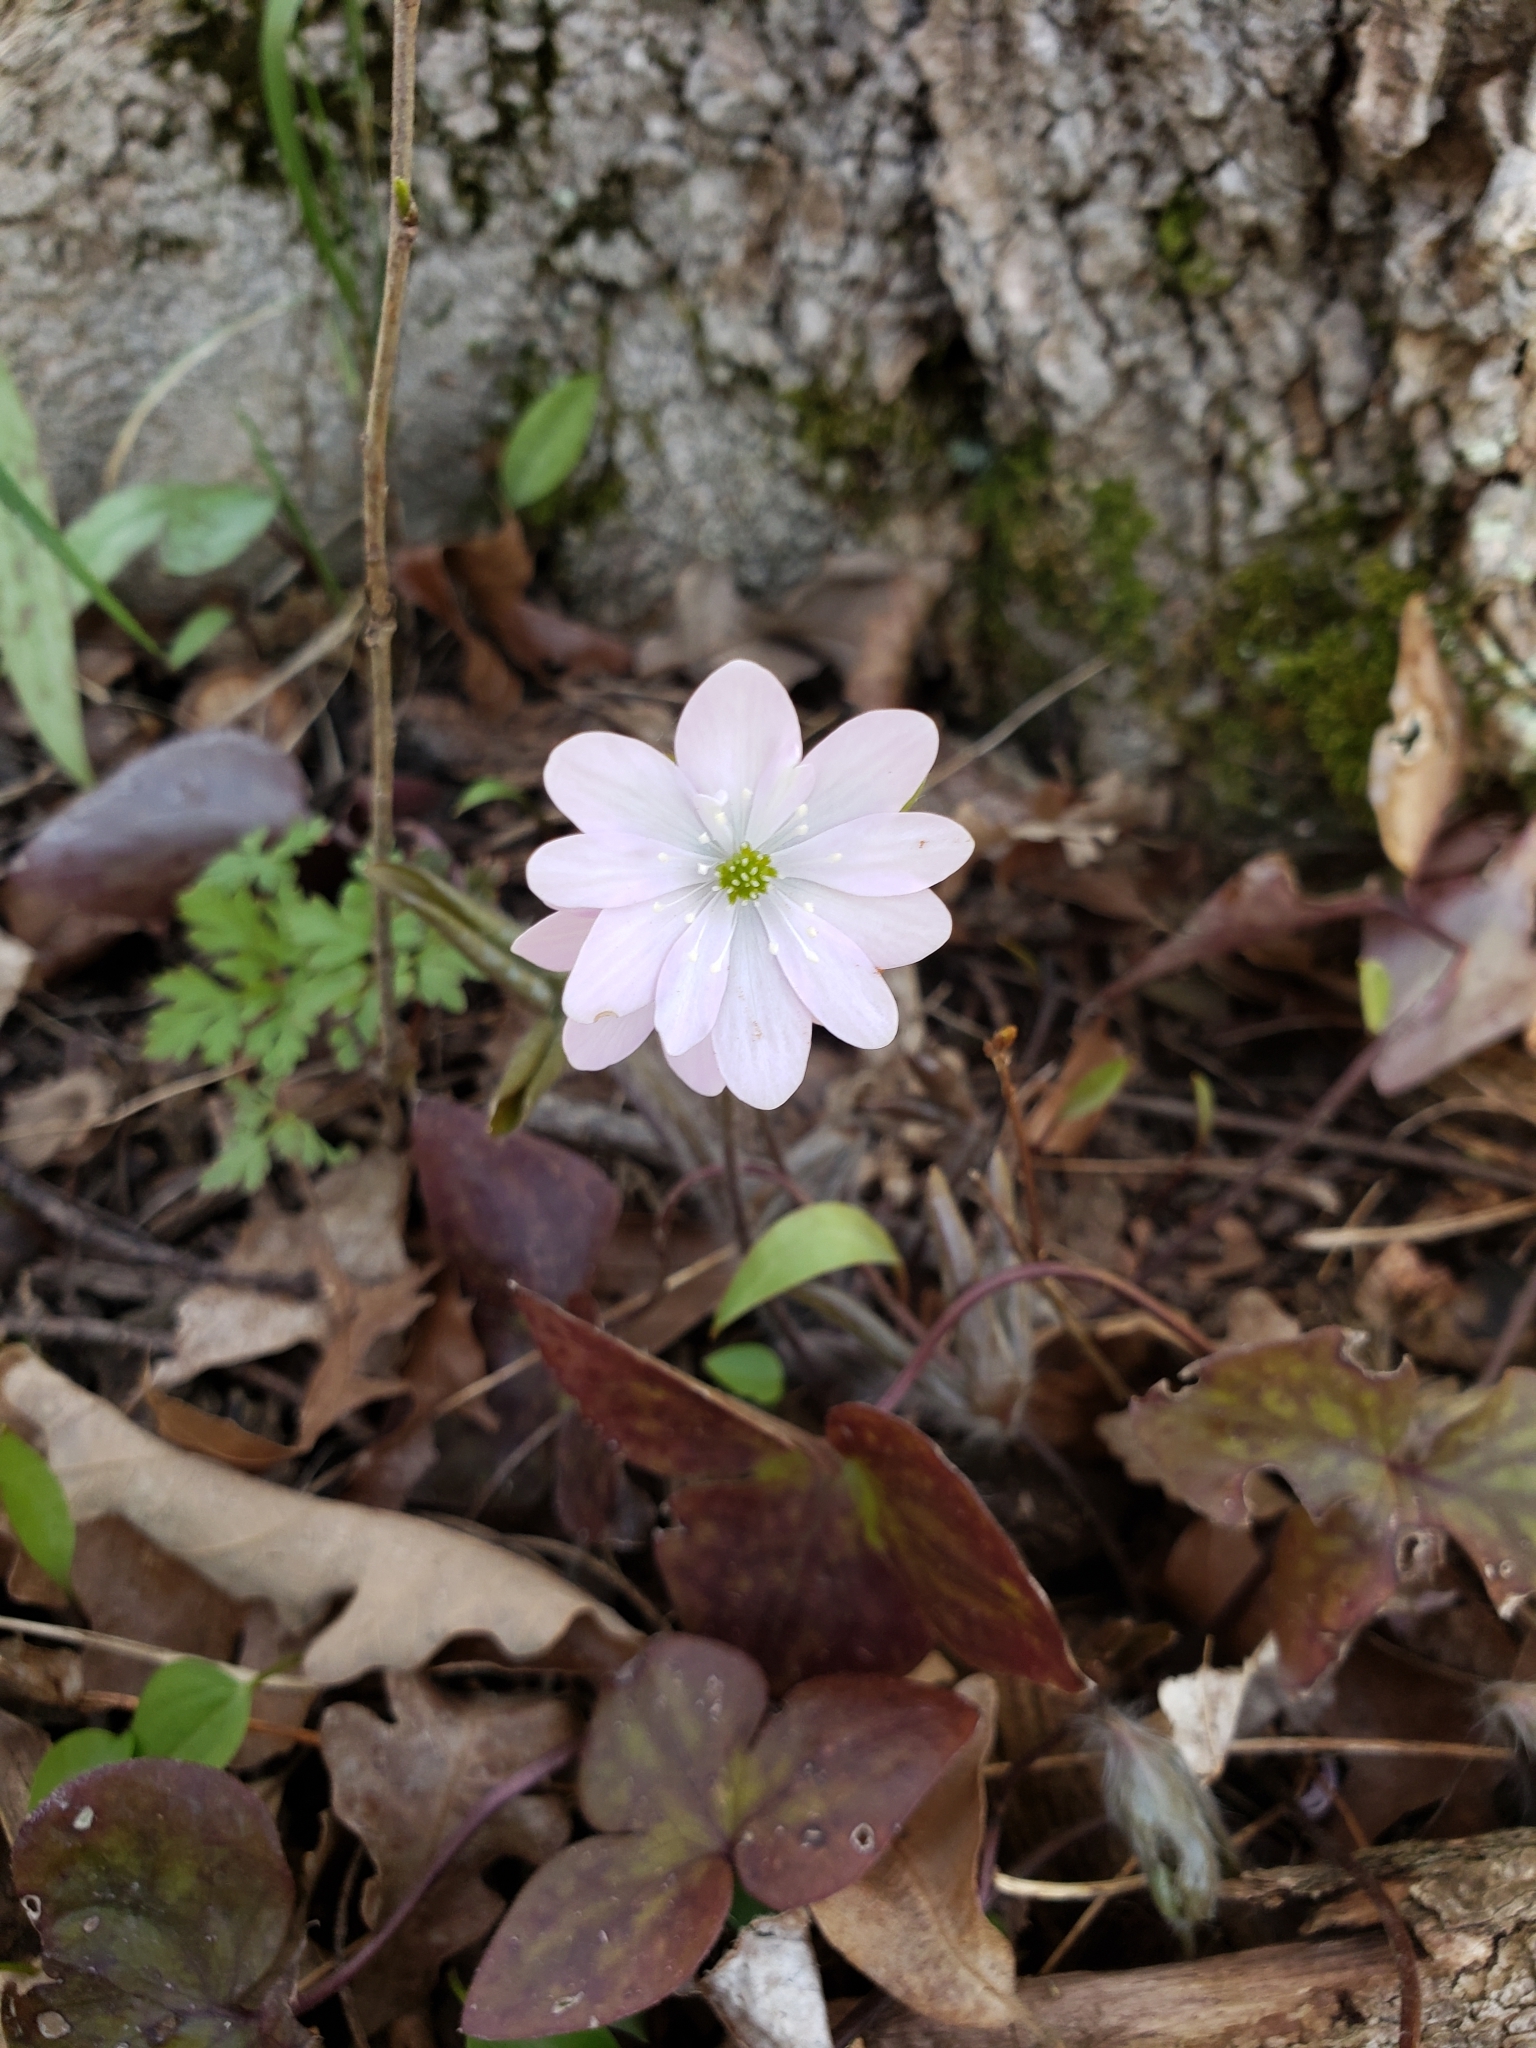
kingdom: Plantae
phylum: Tracheophyta
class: Magnoliopsida
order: Ranunculales
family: Ranunculaceae
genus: Hepatica
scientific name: Hepatica acutiloba
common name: Sharp-lobed hepatica
